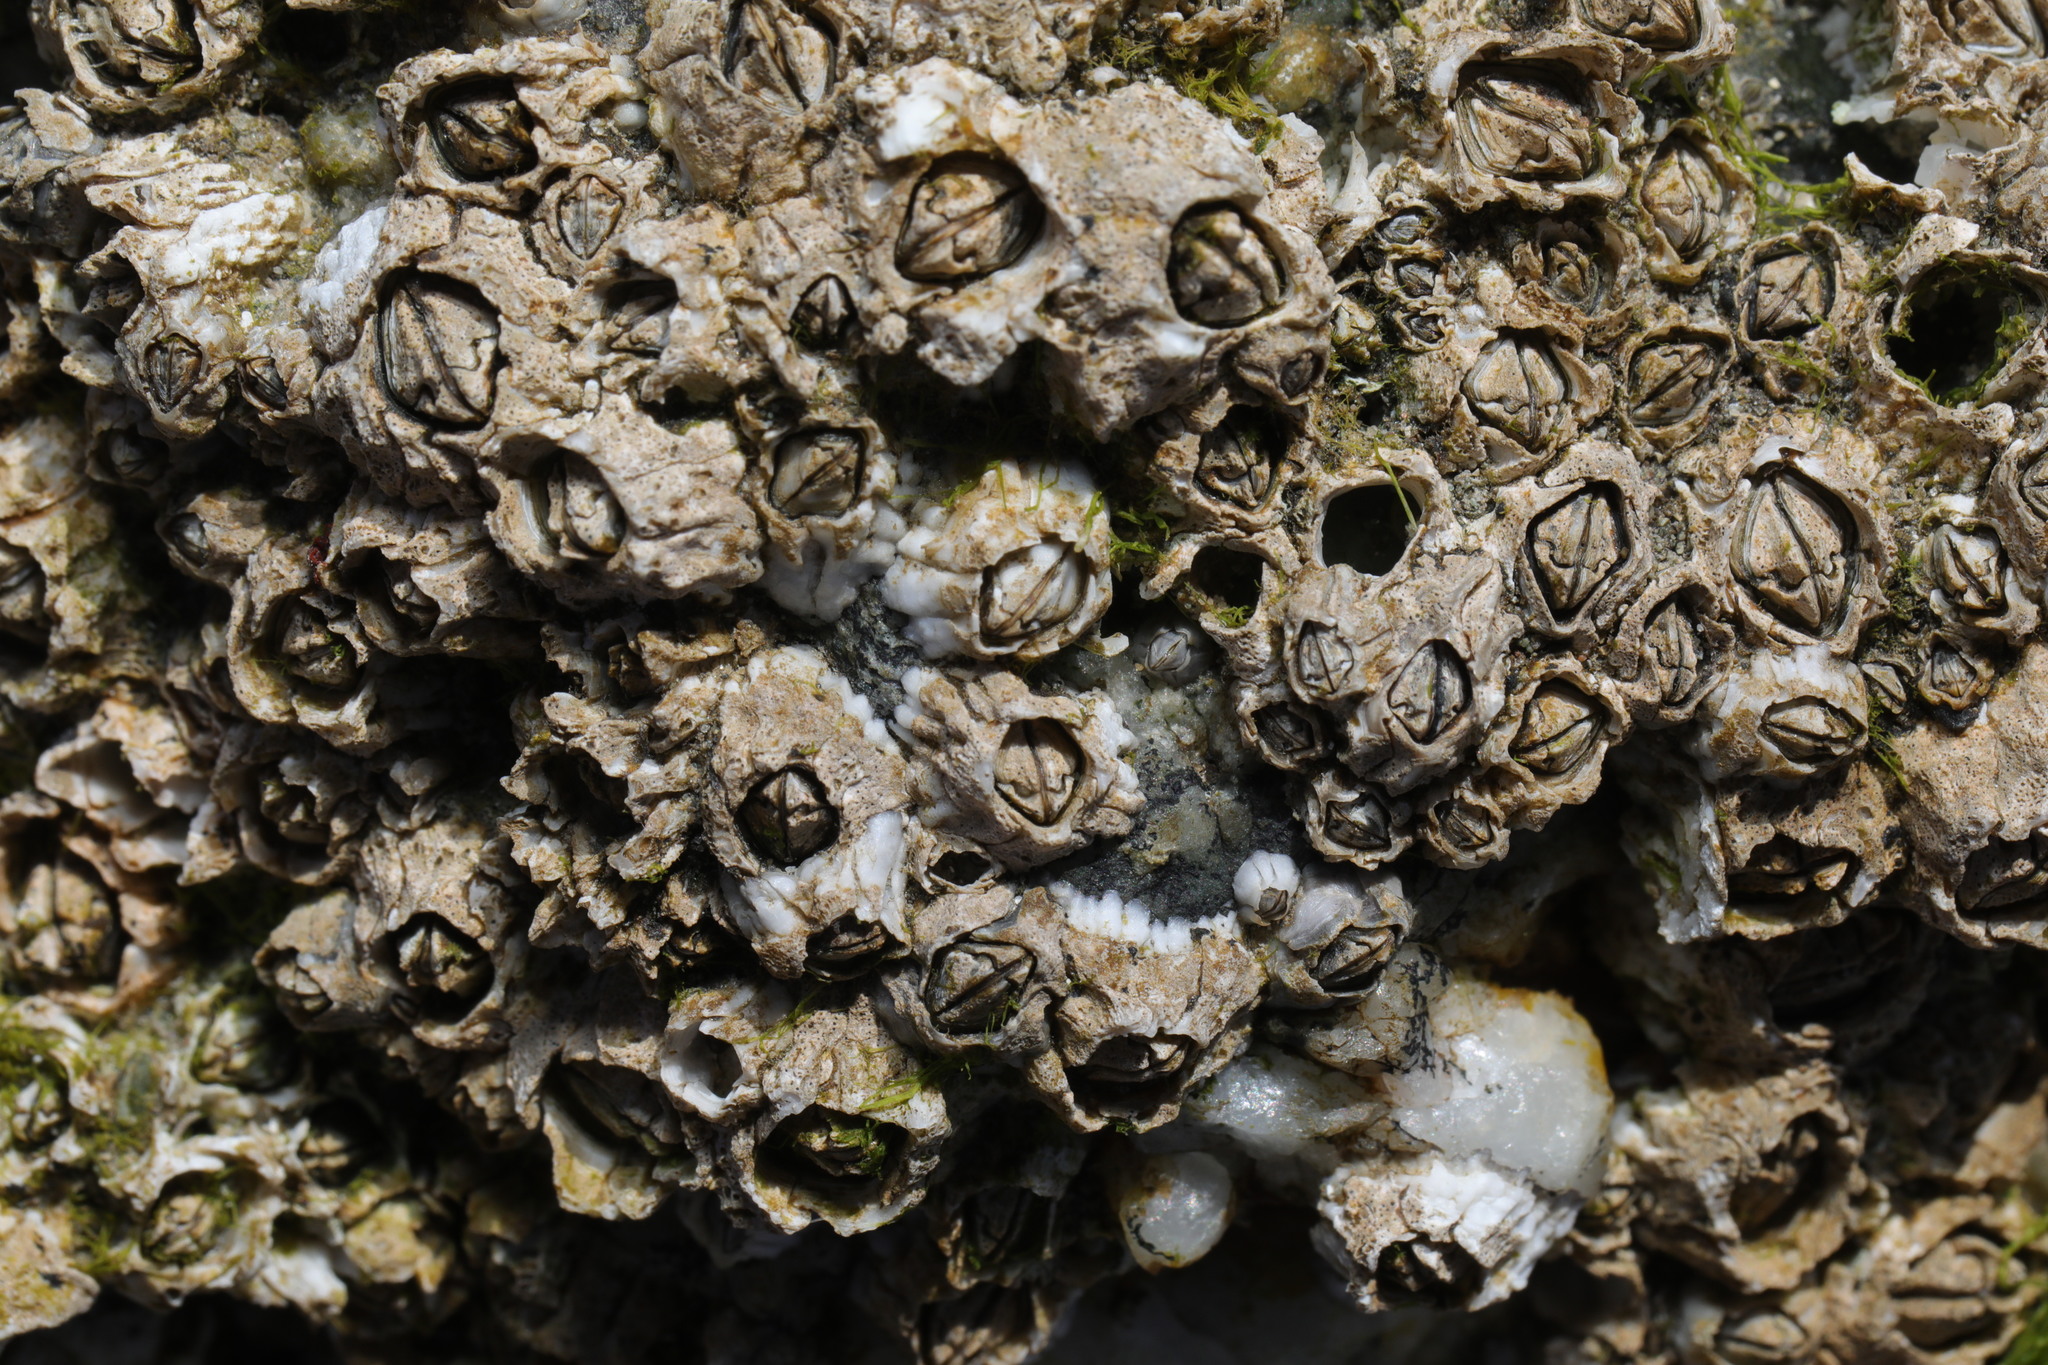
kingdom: Animalia
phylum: Arthropoda
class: Maxillopoda
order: Sessilia
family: Archaeobalanidae
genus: Semibalanus
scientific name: Semibalanus balanoides
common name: Acorn barnacle
